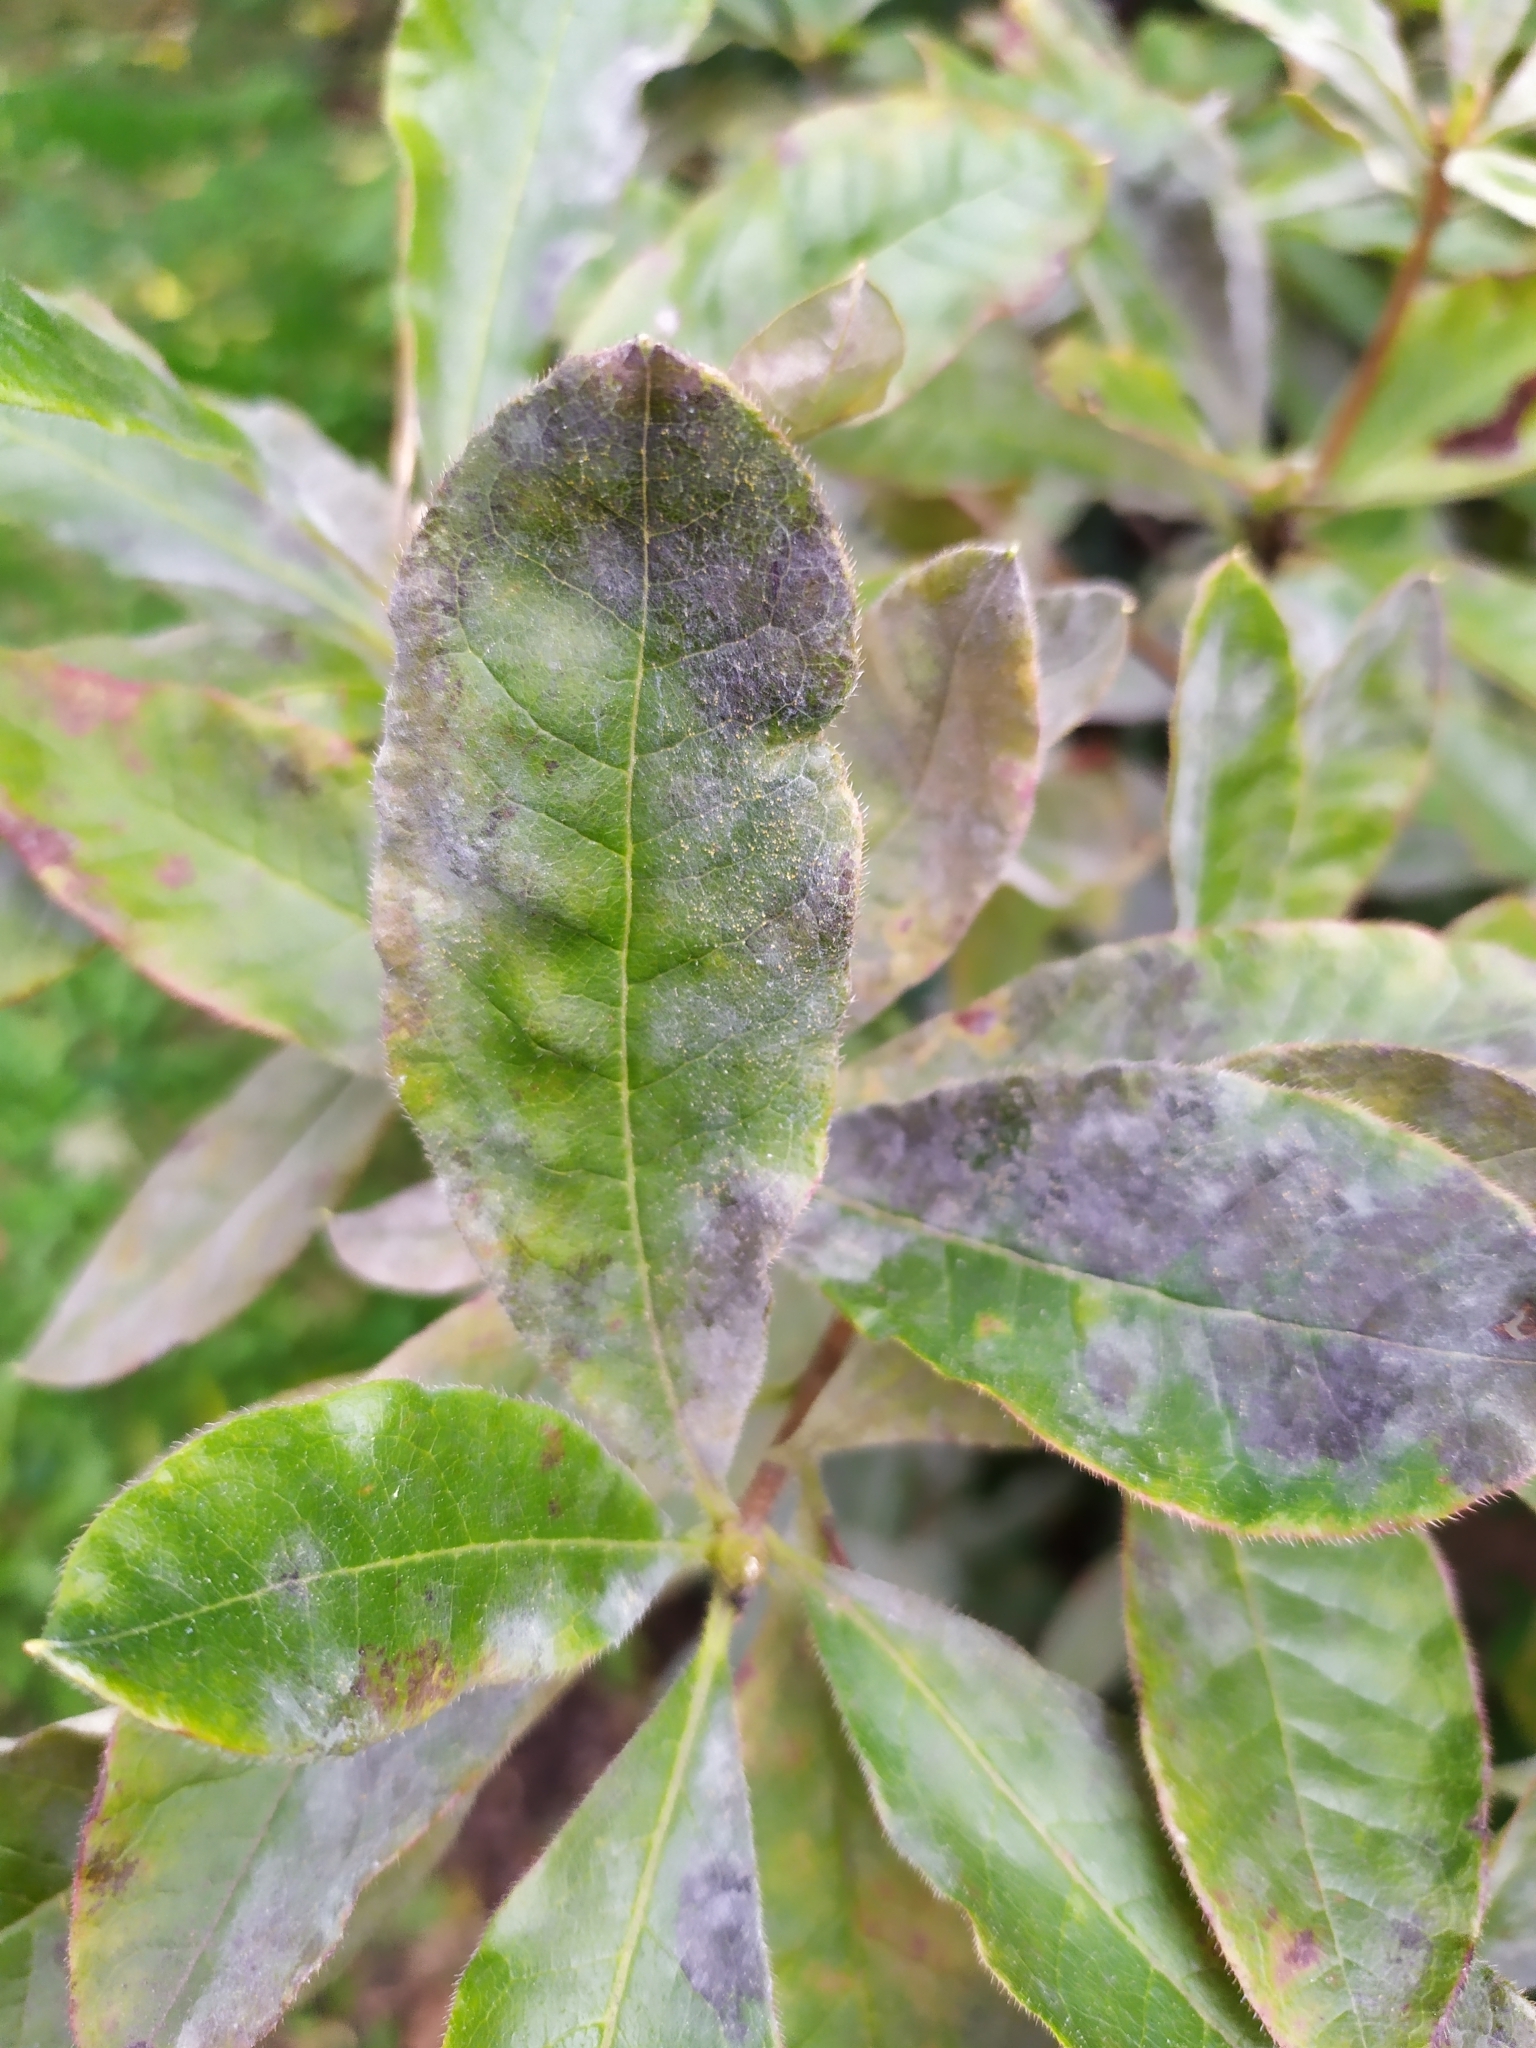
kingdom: Fungi
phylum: Ascomycota
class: Leotiomycetes
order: Helotiales
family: Erysiphaceae
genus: Erysiphe
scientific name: Erysiphe azaleae
